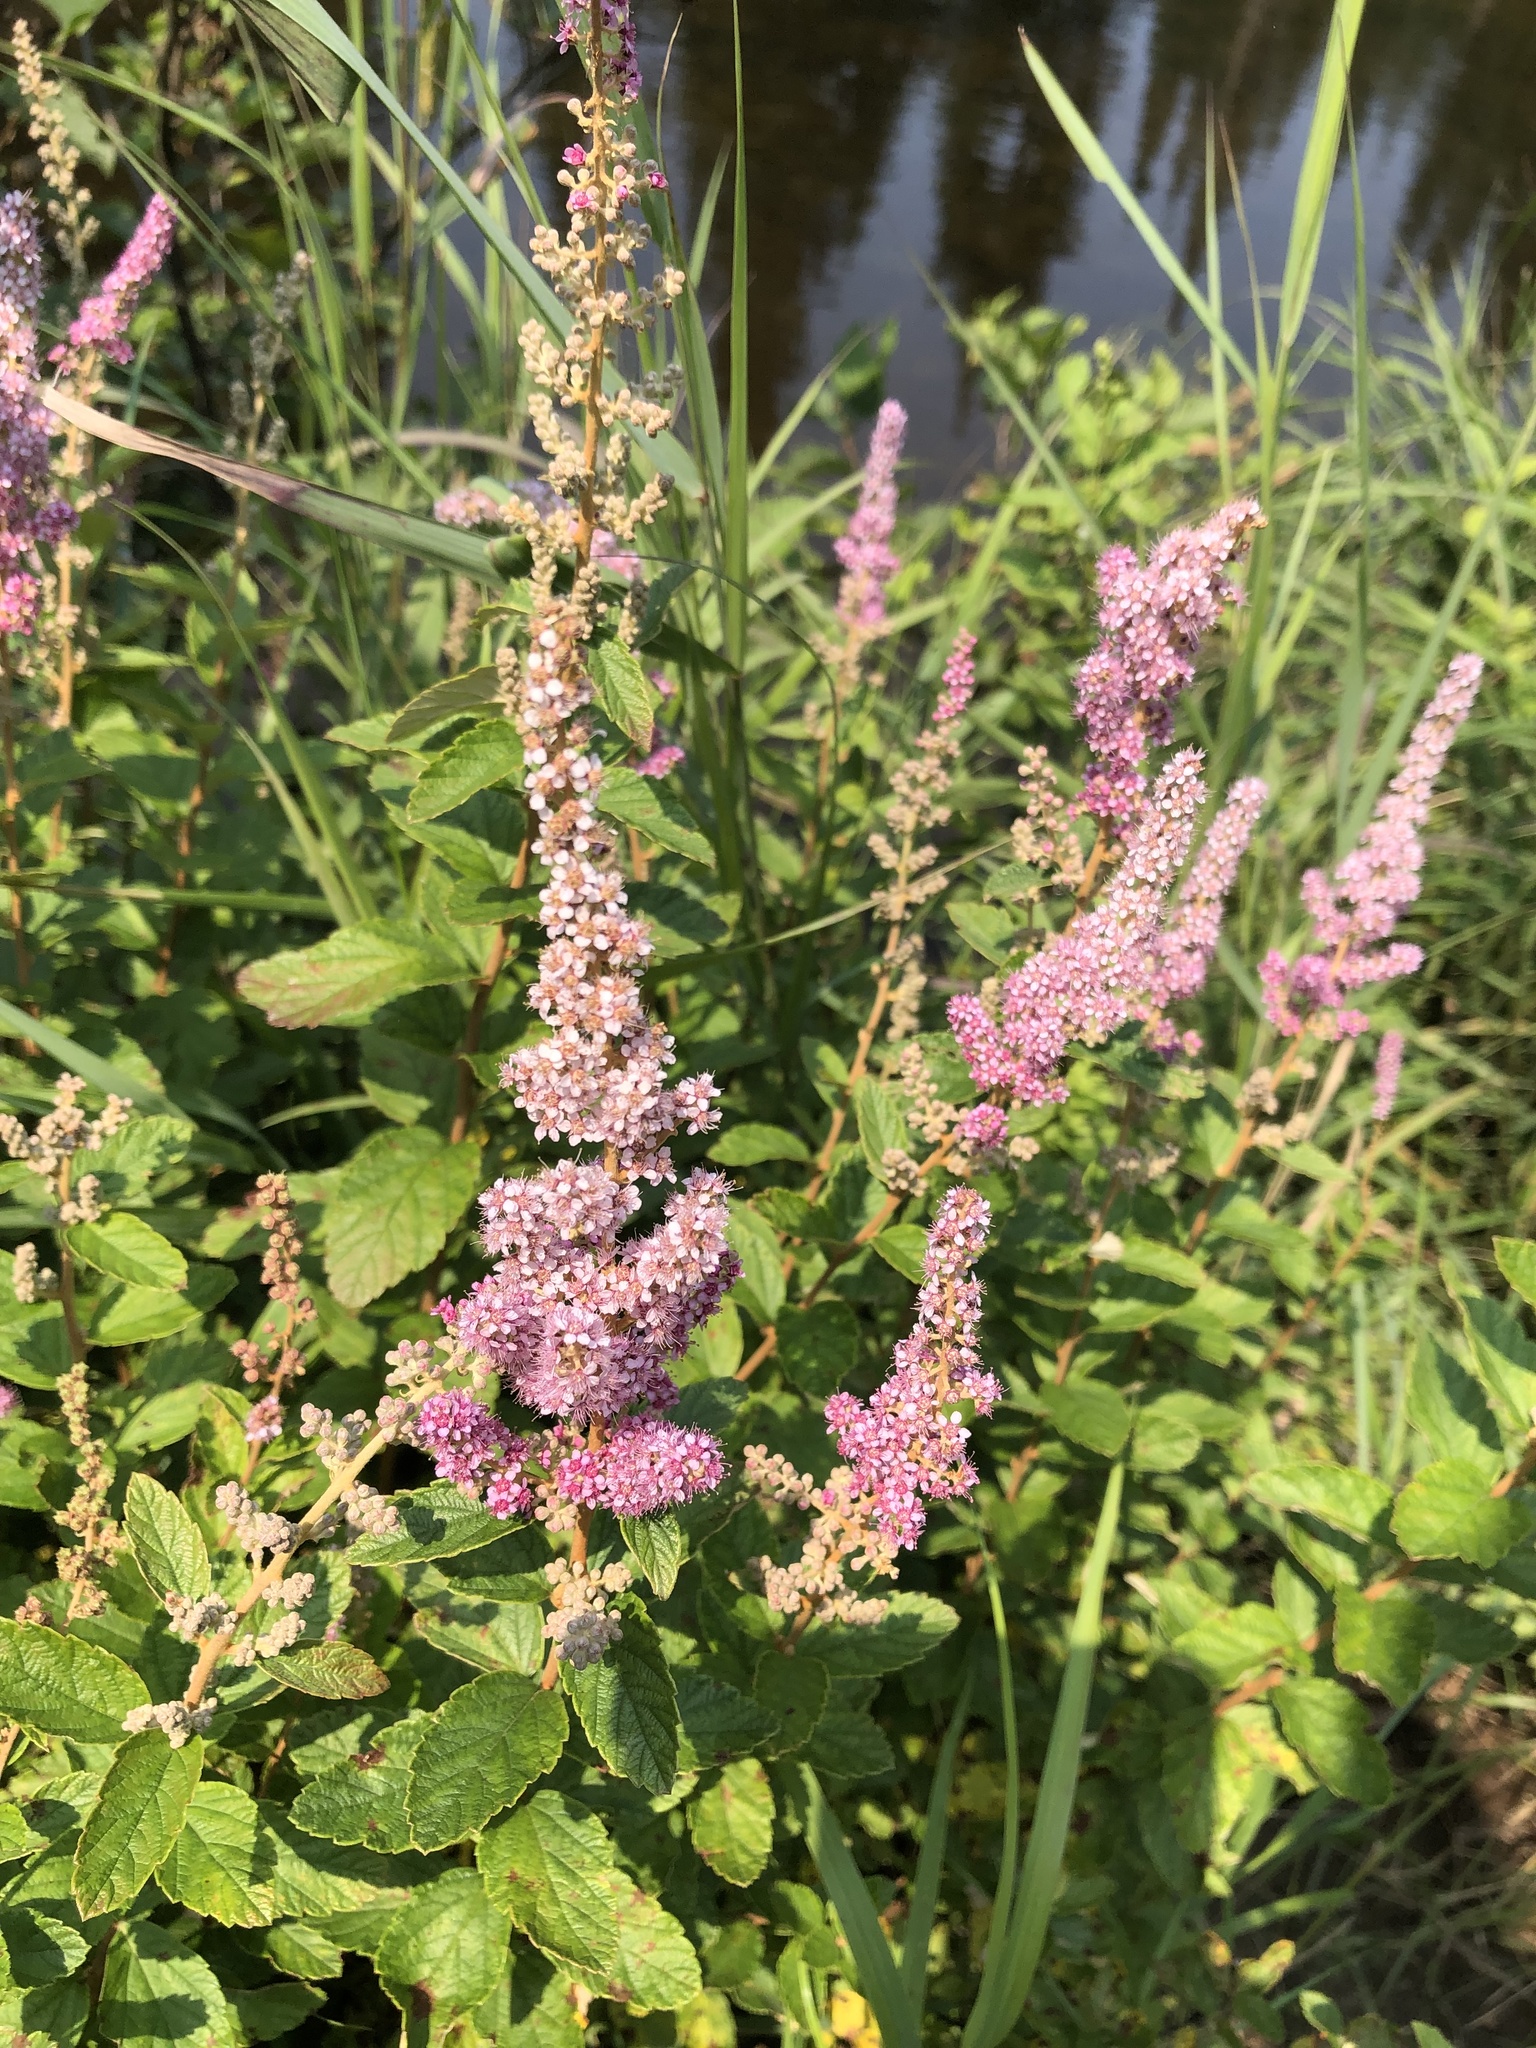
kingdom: Plantae
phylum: Tracheophyta
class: Magnoliopsida
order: Rosales
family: Rosaceae
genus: Spiraea
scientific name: Spiraea tomentosa
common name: Hardhack
